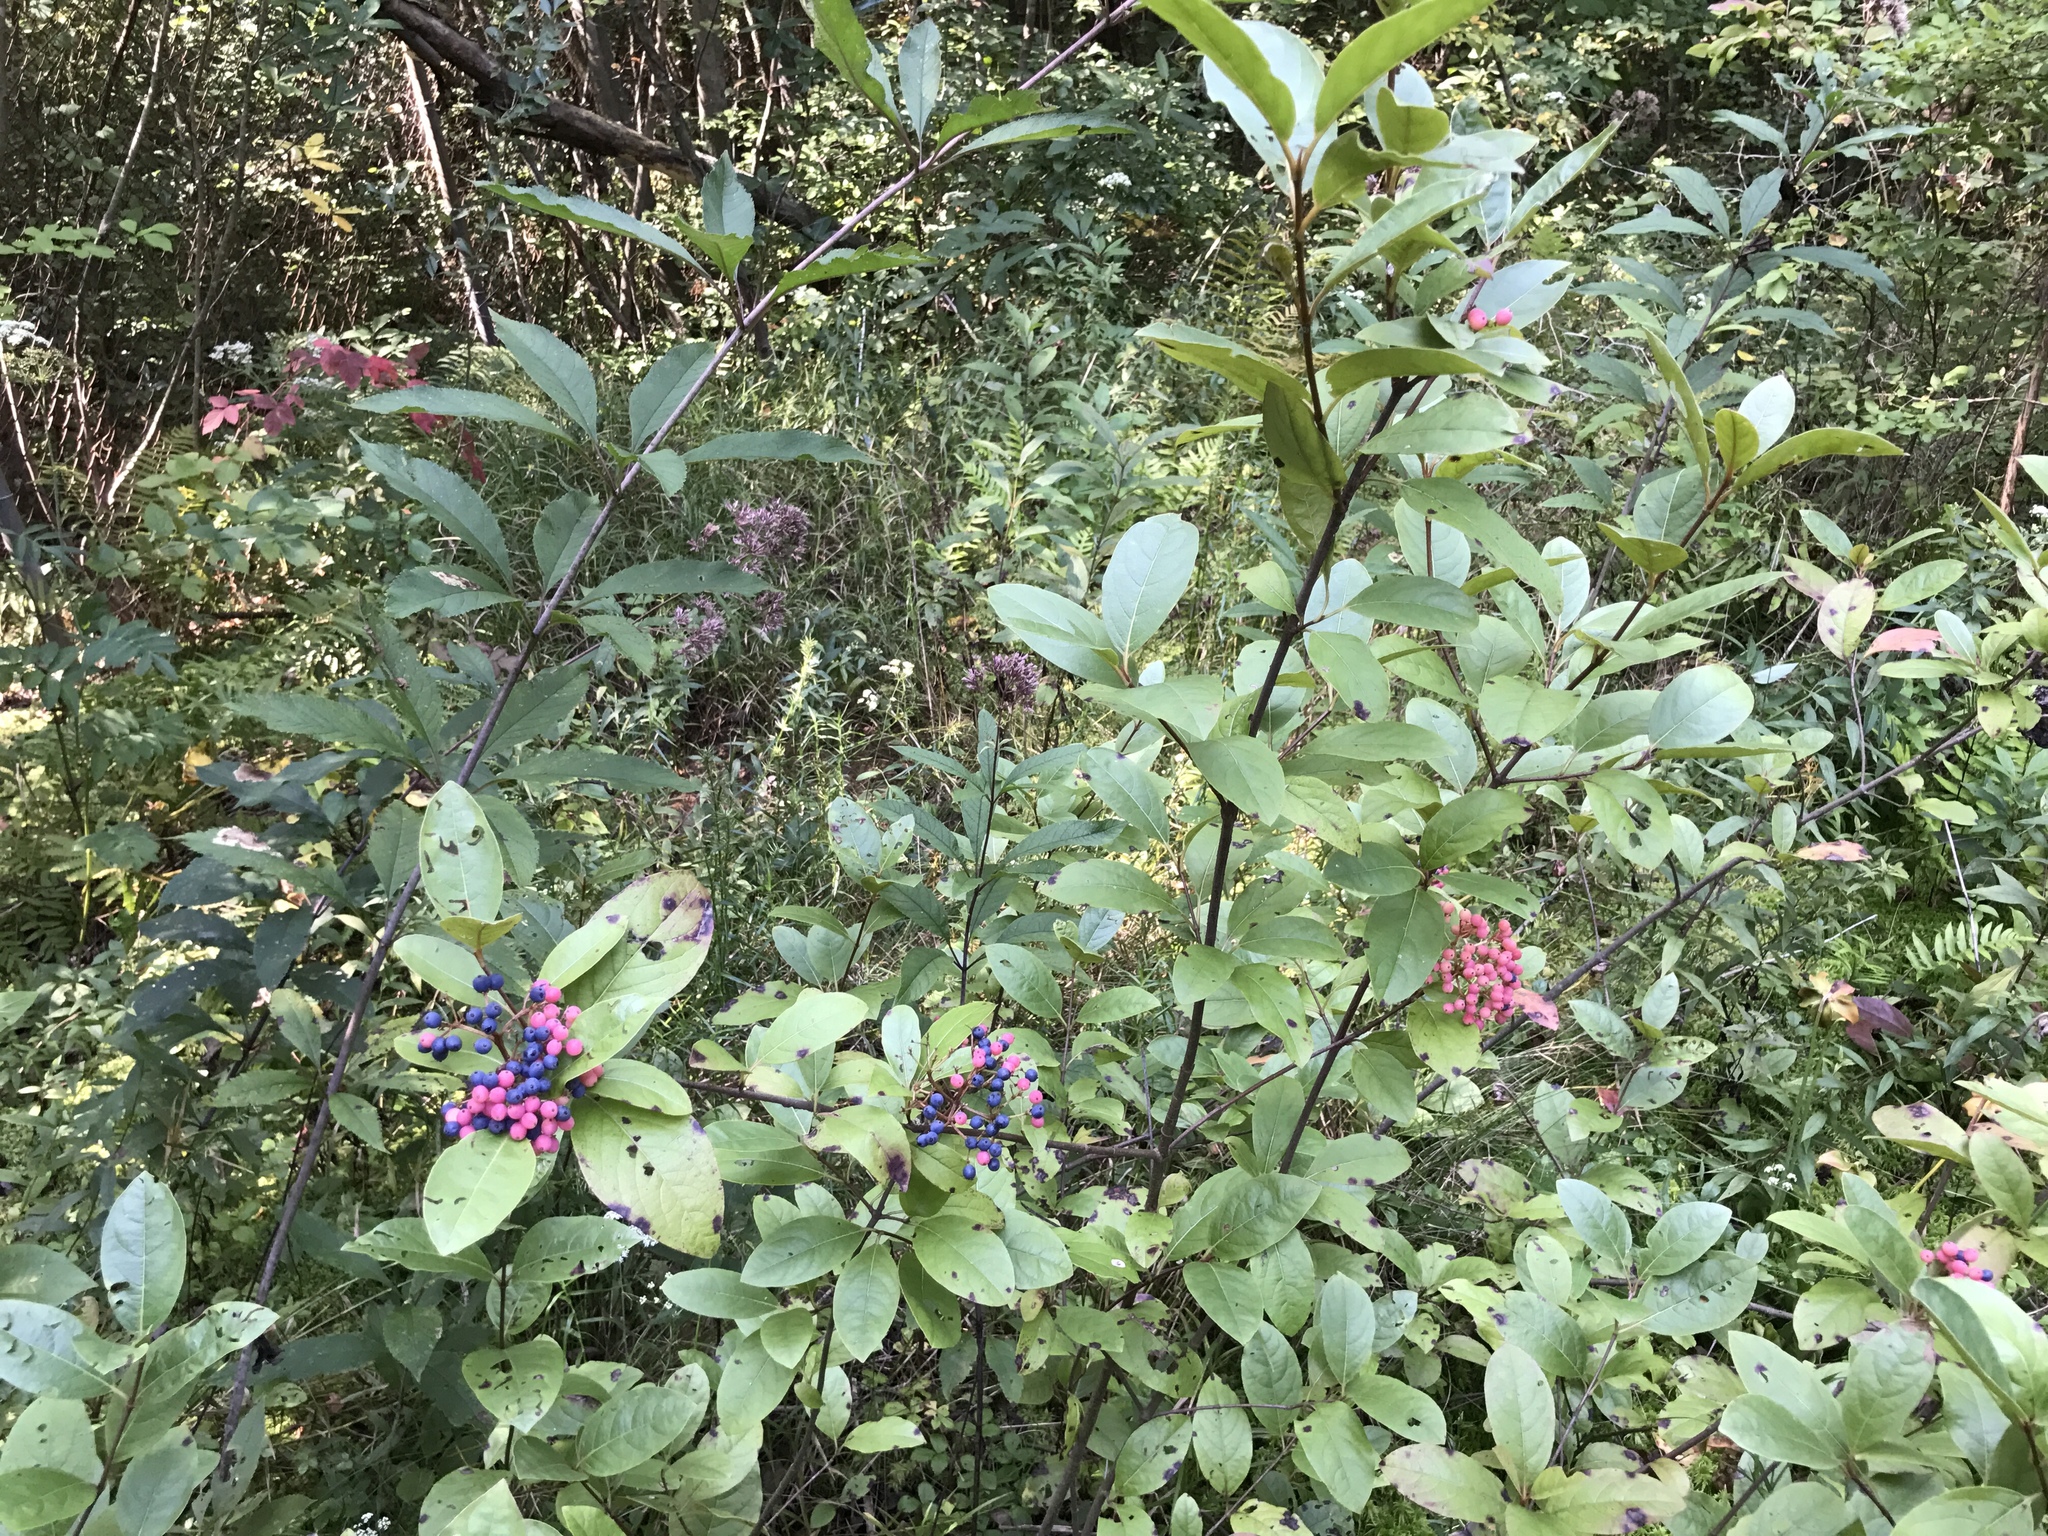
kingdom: Plantae
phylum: Tracheophyta
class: Magnoliopsida
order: Dipsacales
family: Viburnaceae
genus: Viburnum
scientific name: Viburnum nudum
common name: Possum haw
